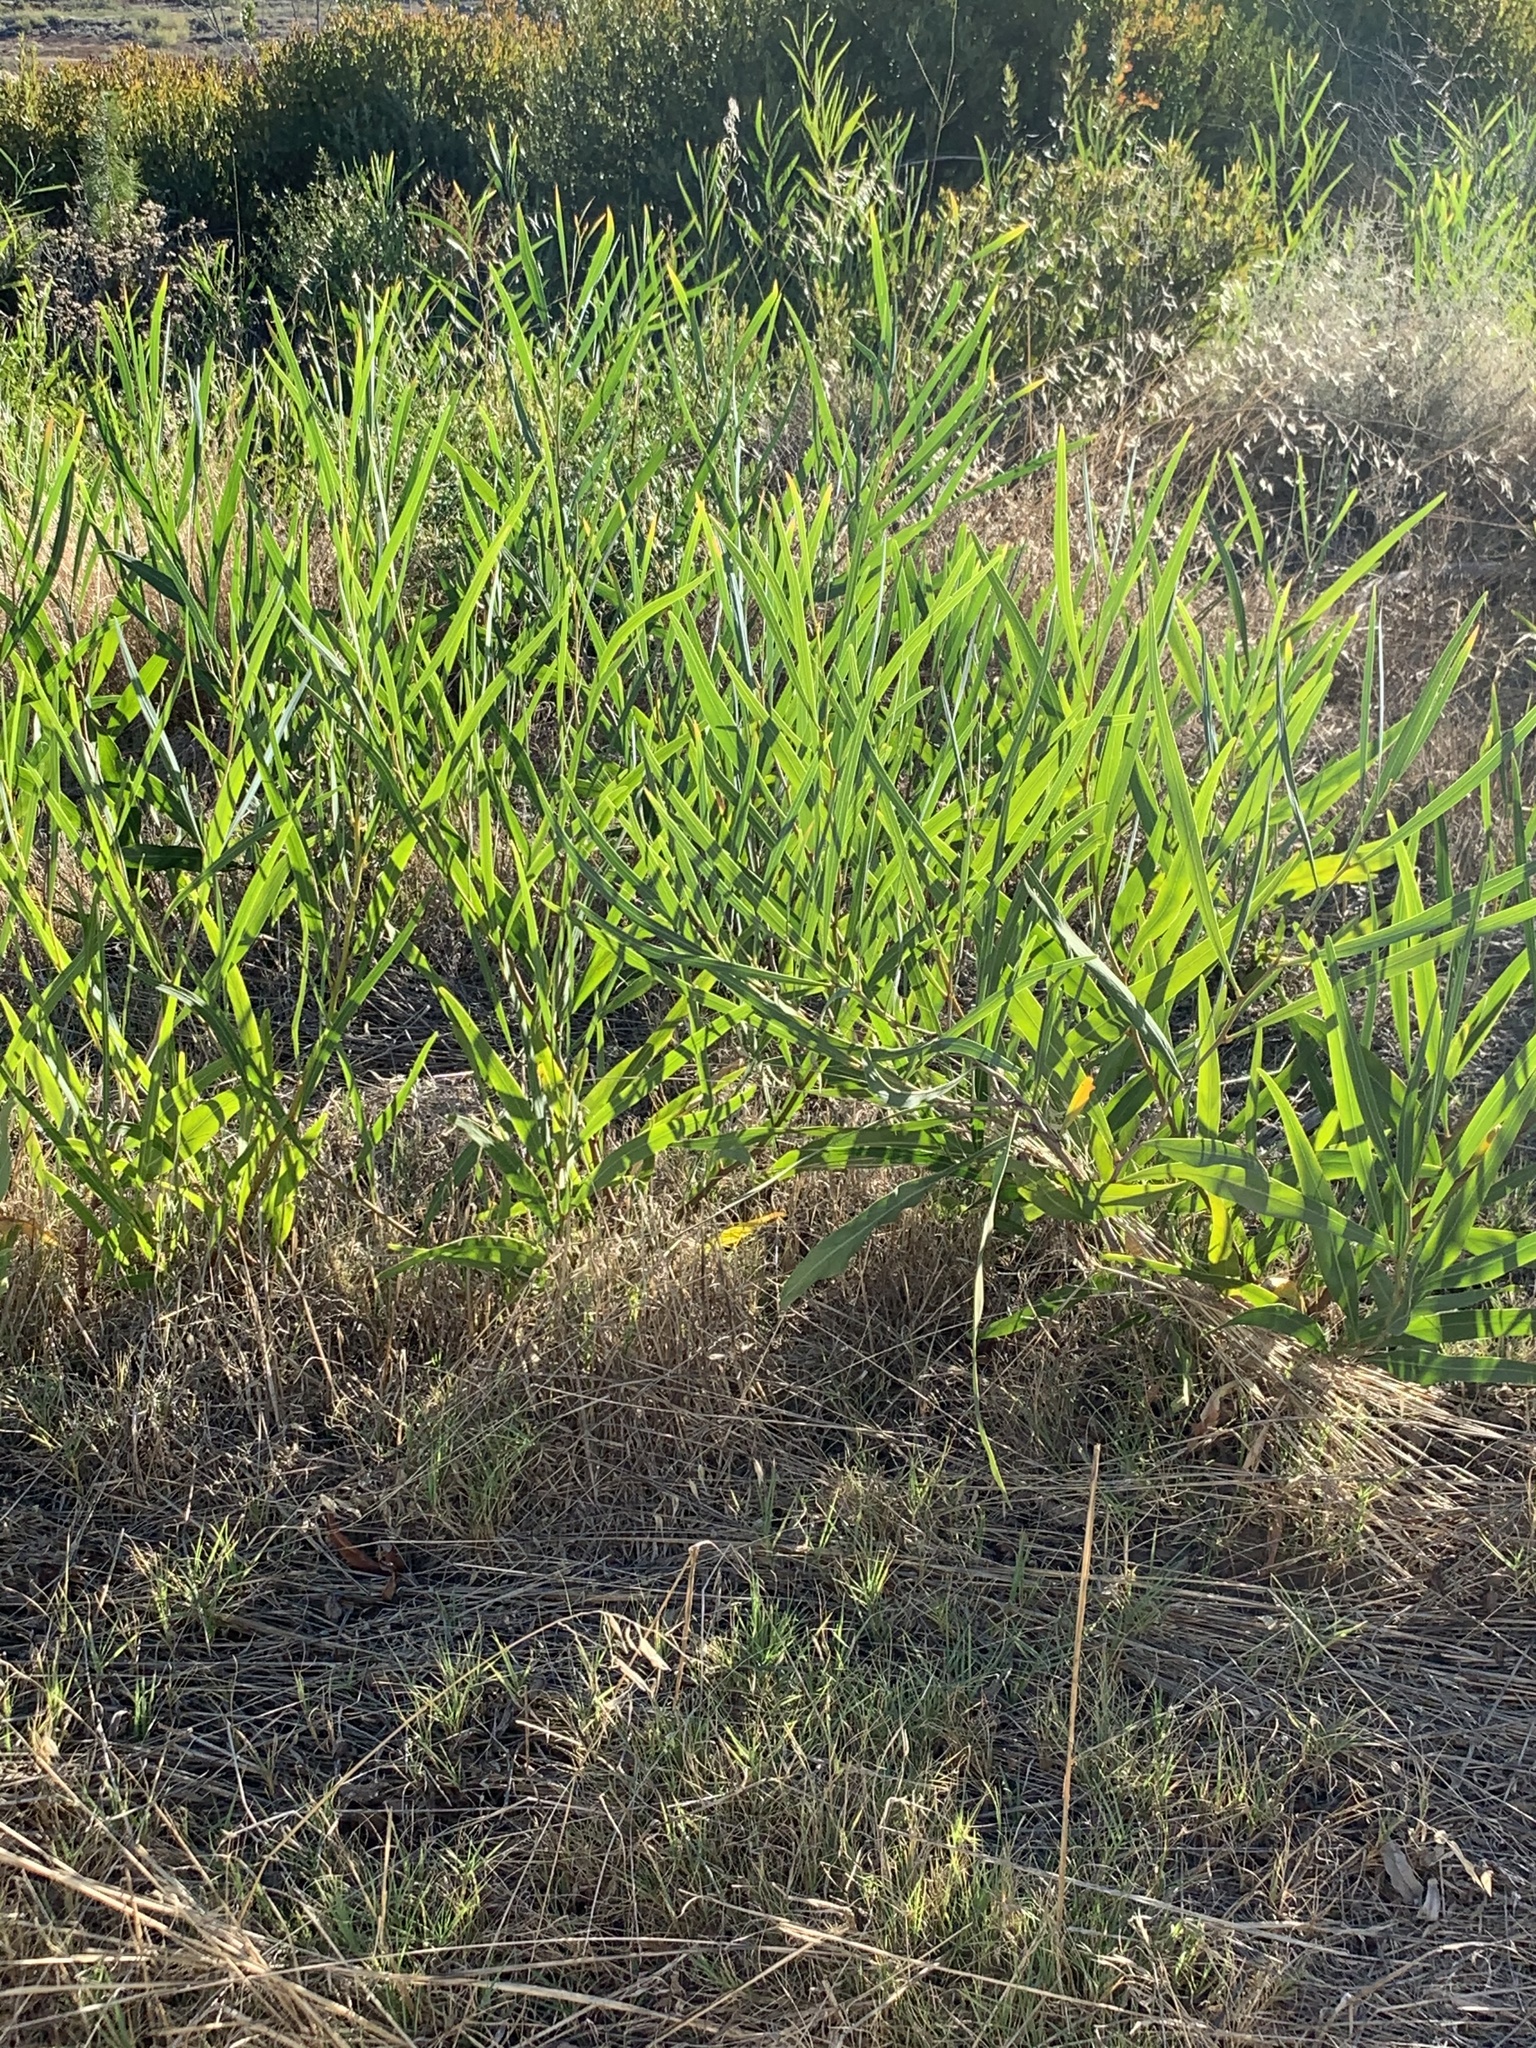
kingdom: Plantae
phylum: Tracheophyta
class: Magnoliopsida
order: Fabales
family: Fabaceae
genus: Acacia
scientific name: Acacia saligna
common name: Orange wattle
